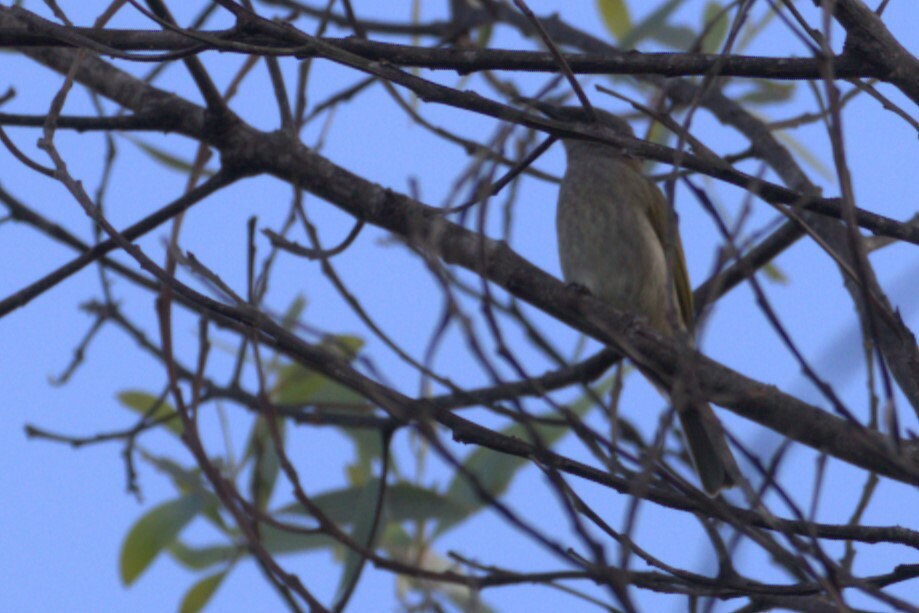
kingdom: Animalia
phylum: Chordata
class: Aves
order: Passeriformes
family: Meliphagidae
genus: Lichmera
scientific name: Lichmera indistincta
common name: Brown honeyeater
